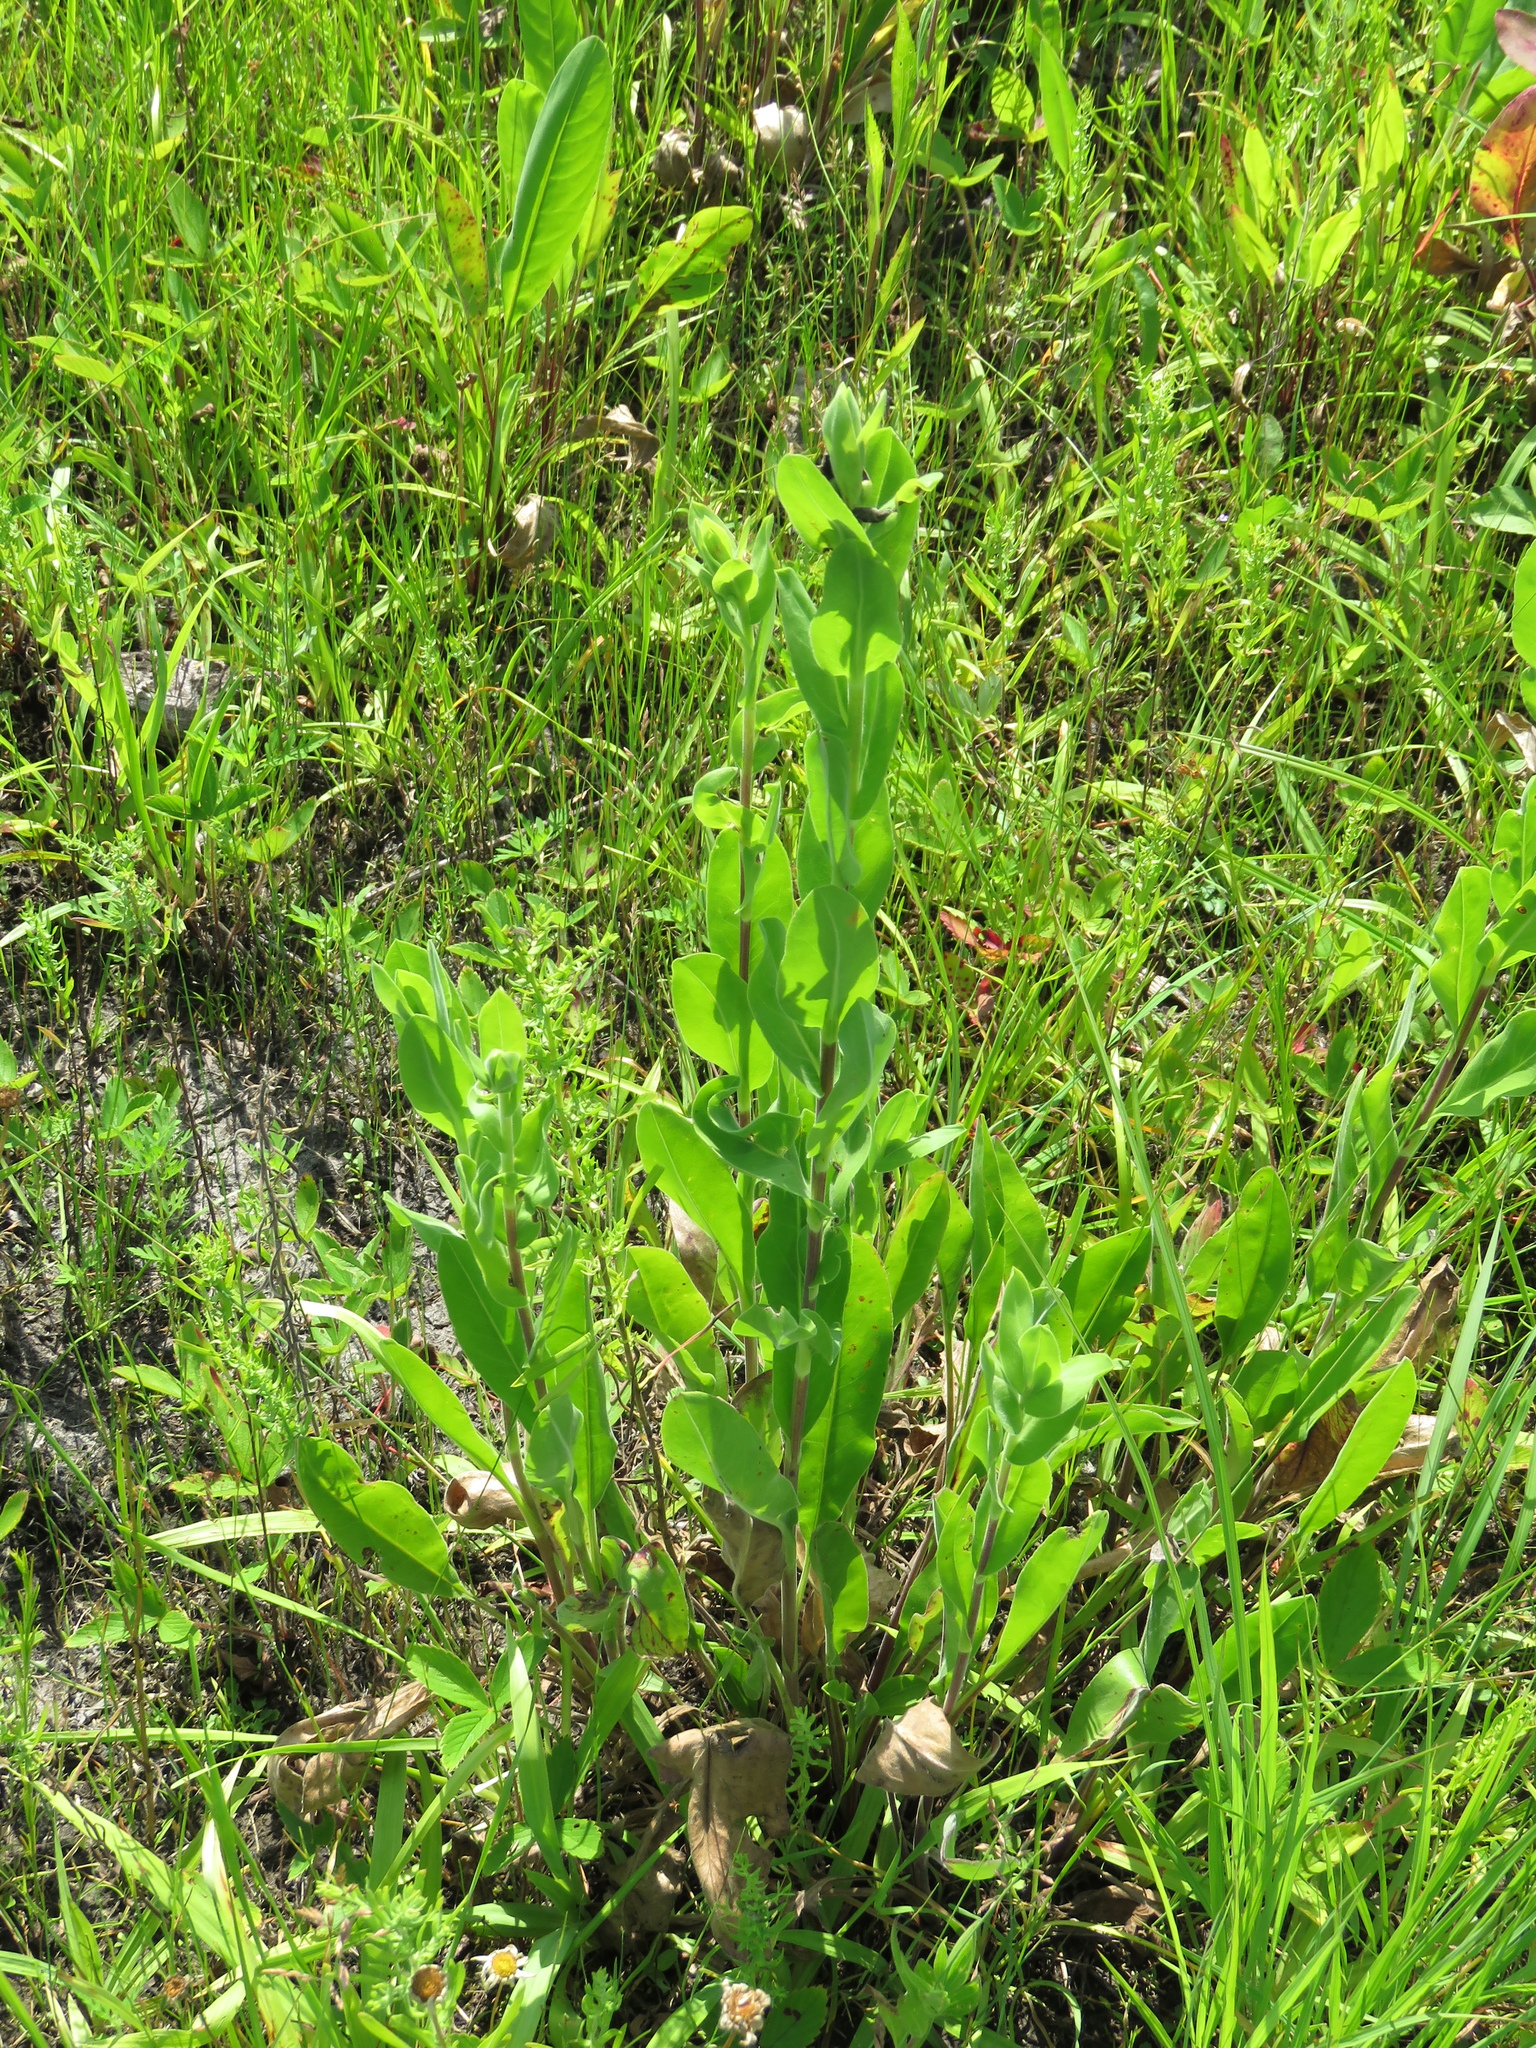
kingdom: Plantae
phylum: Tracheophyta
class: Magnoliopsida
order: Asterales
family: Asteraceae
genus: Solidago
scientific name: Solidago rigida
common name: Rigid goldenrod
